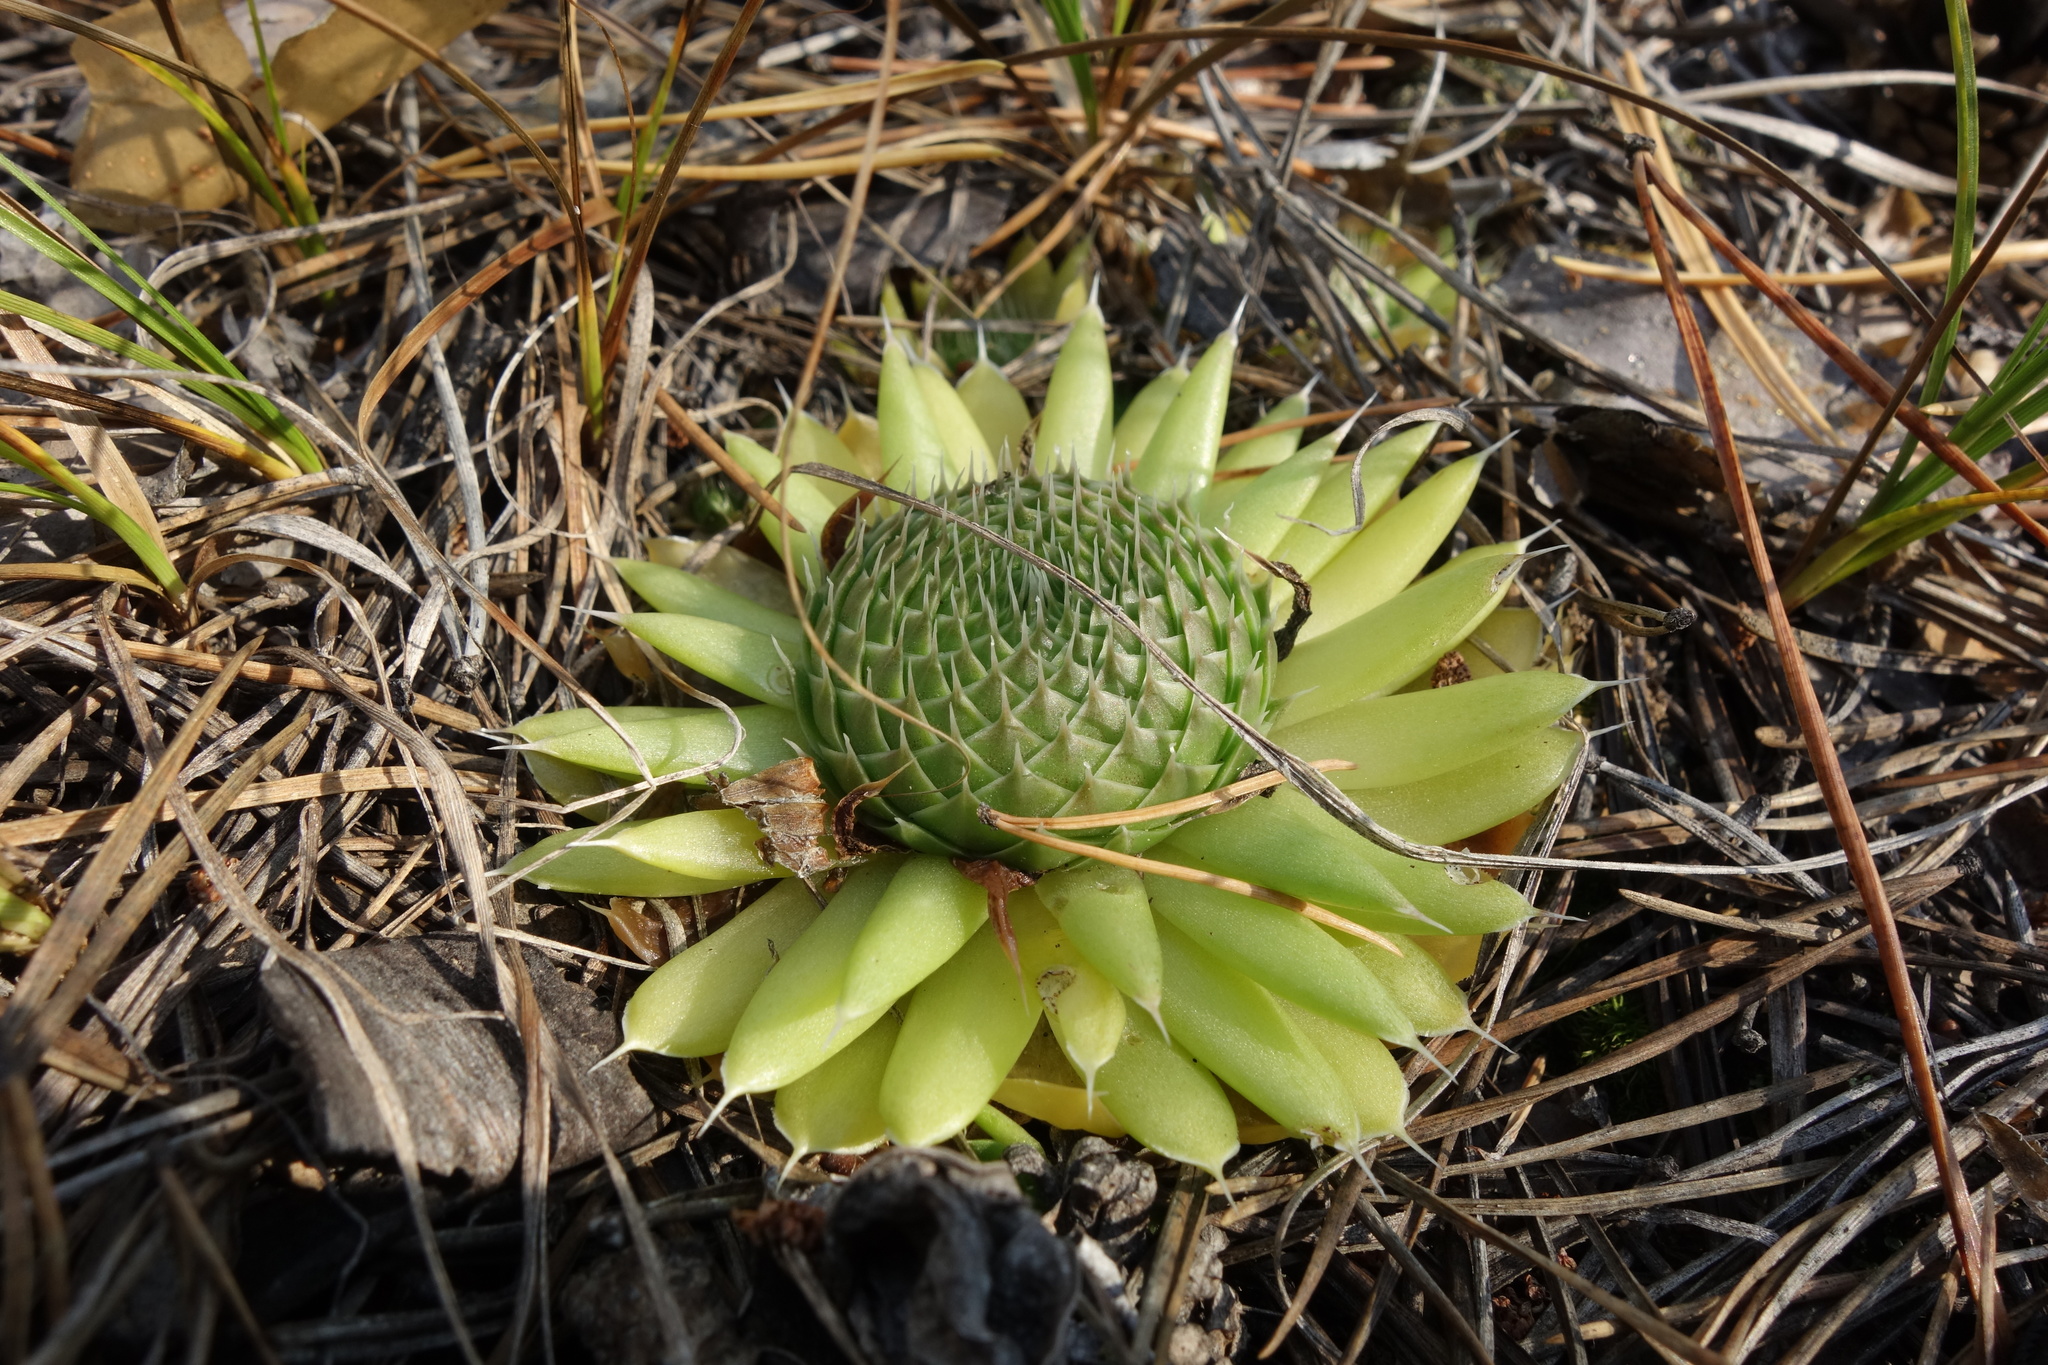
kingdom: Plantae
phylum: Tracheophyta
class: Magnoliopsida
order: Saxifragales
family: Crassulaceae
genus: Orostachys
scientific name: Orostachys spinosa
